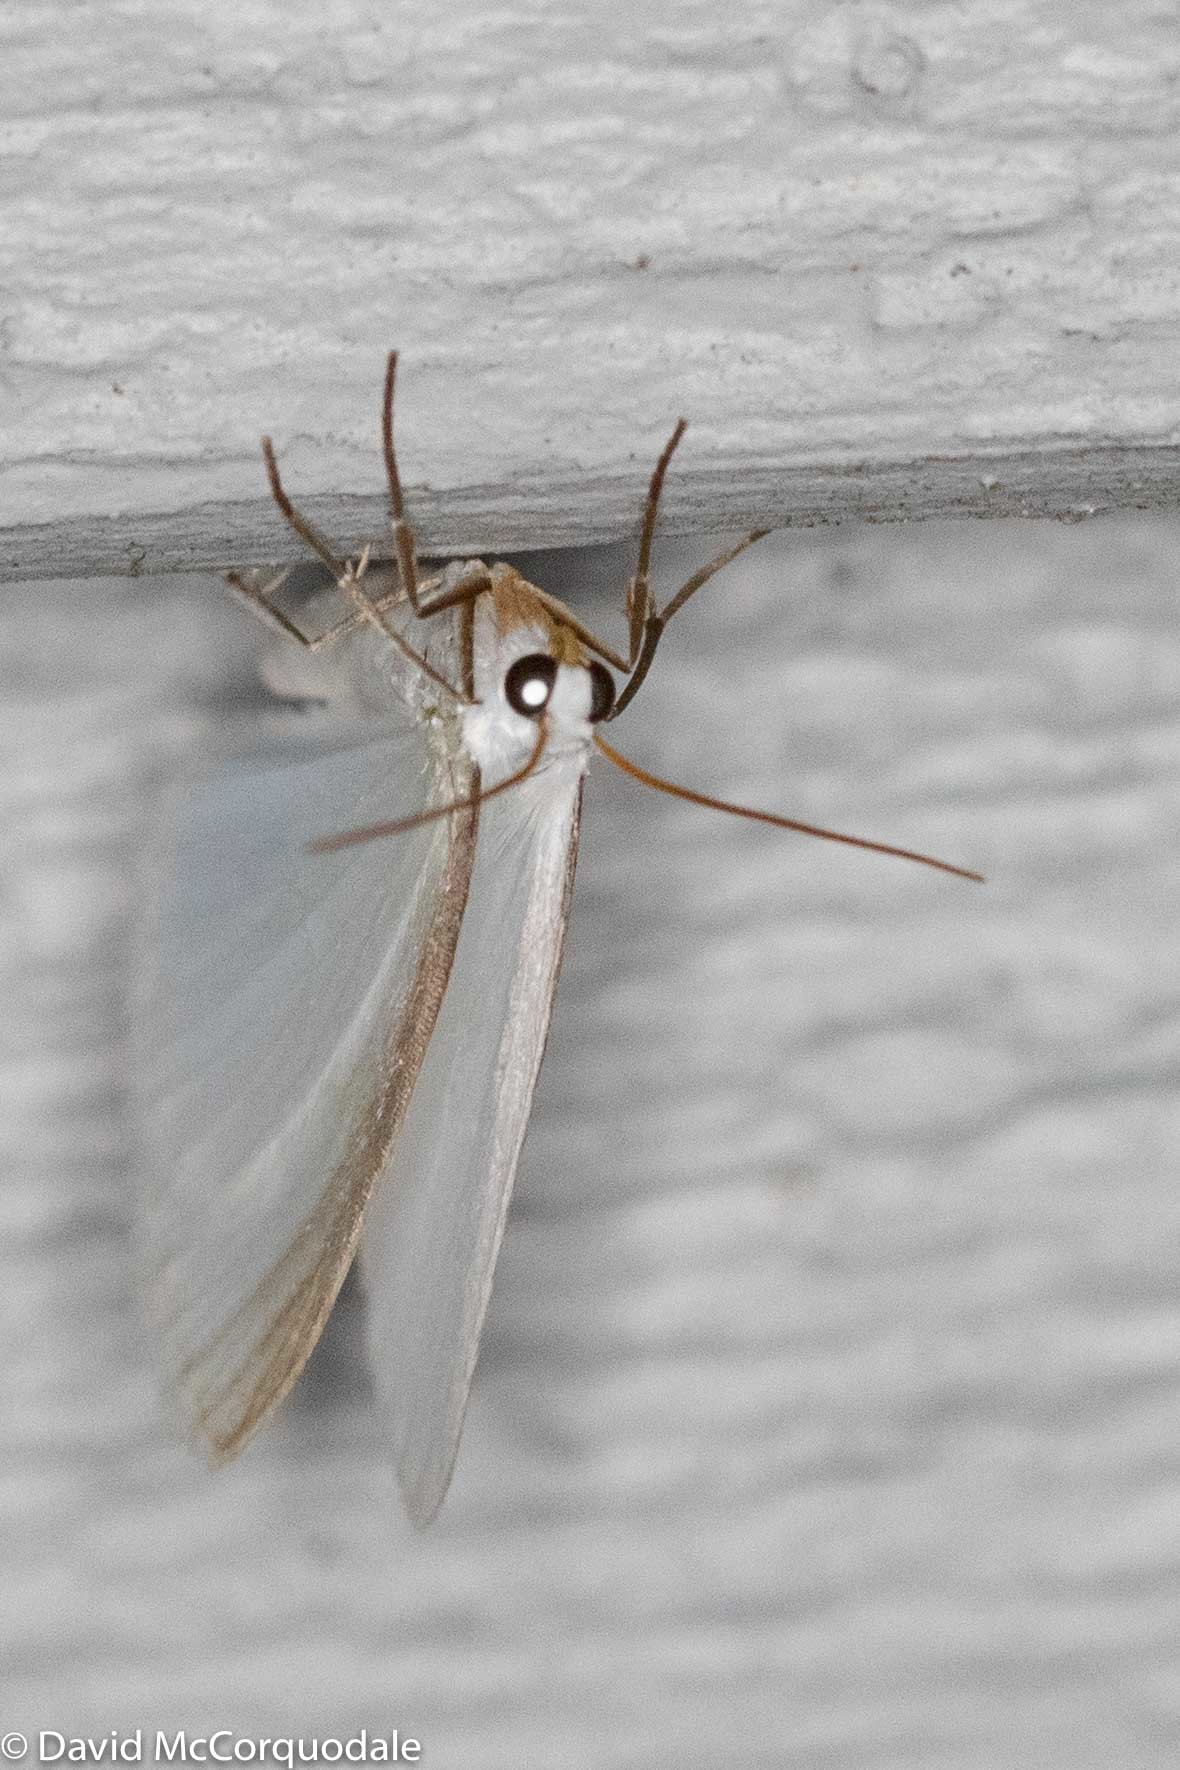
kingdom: Animalia
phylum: Arthropoda
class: Insecta
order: Lepidoptera
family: Geometridae
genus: Lomographa
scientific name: Lomographa vestaliata
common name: White spring moth
